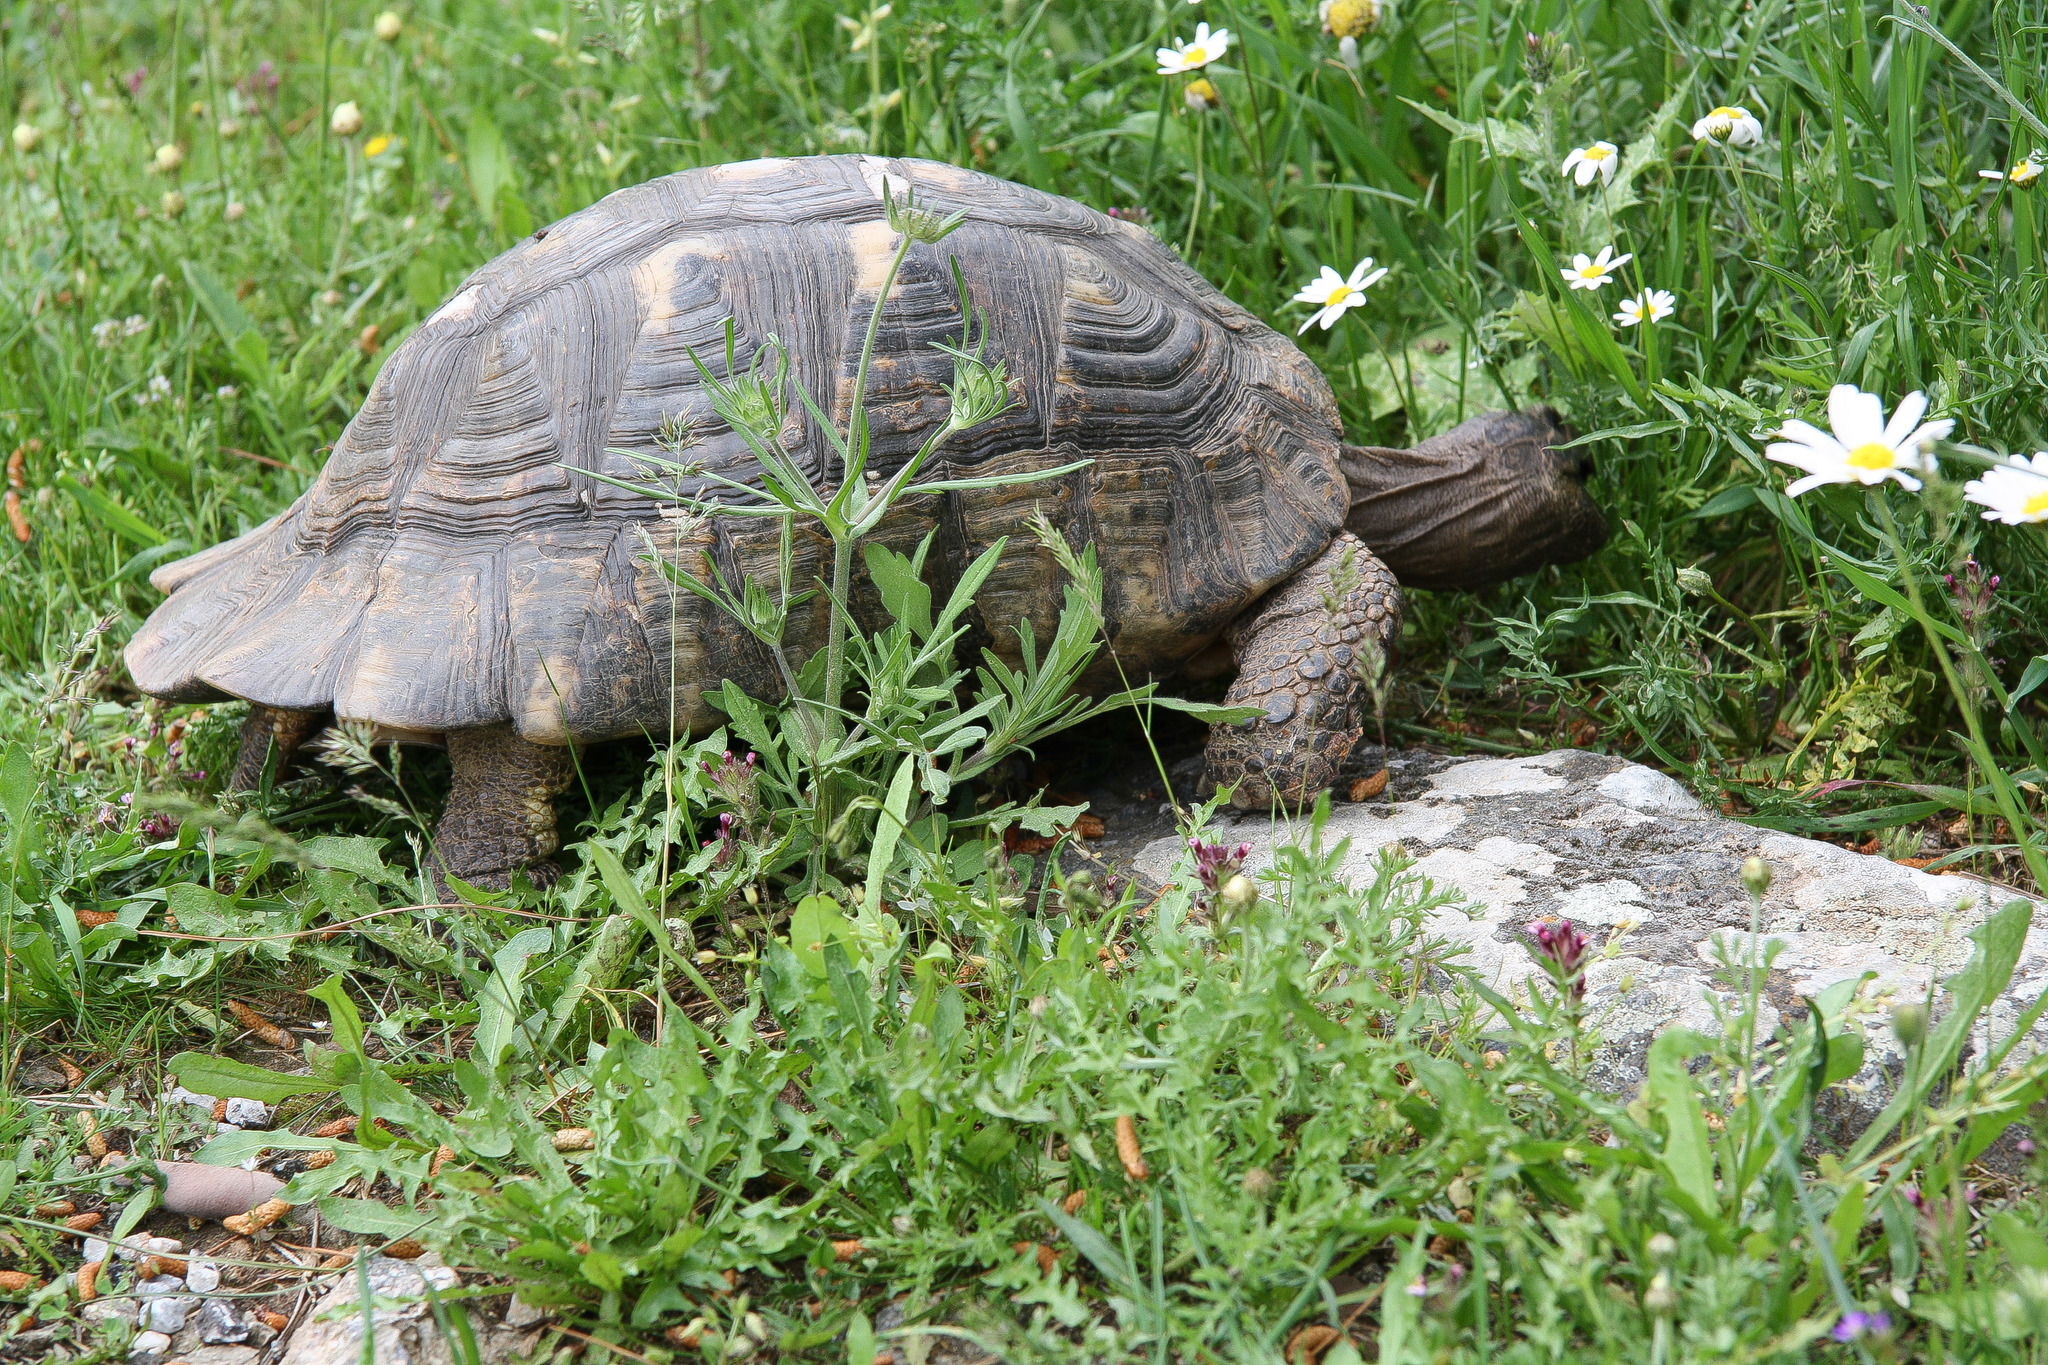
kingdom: Animalia
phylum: Chordata
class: Testudines
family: Testudinidae
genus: Testudo
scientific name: Testudo marginata
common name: Marginated tortoise
